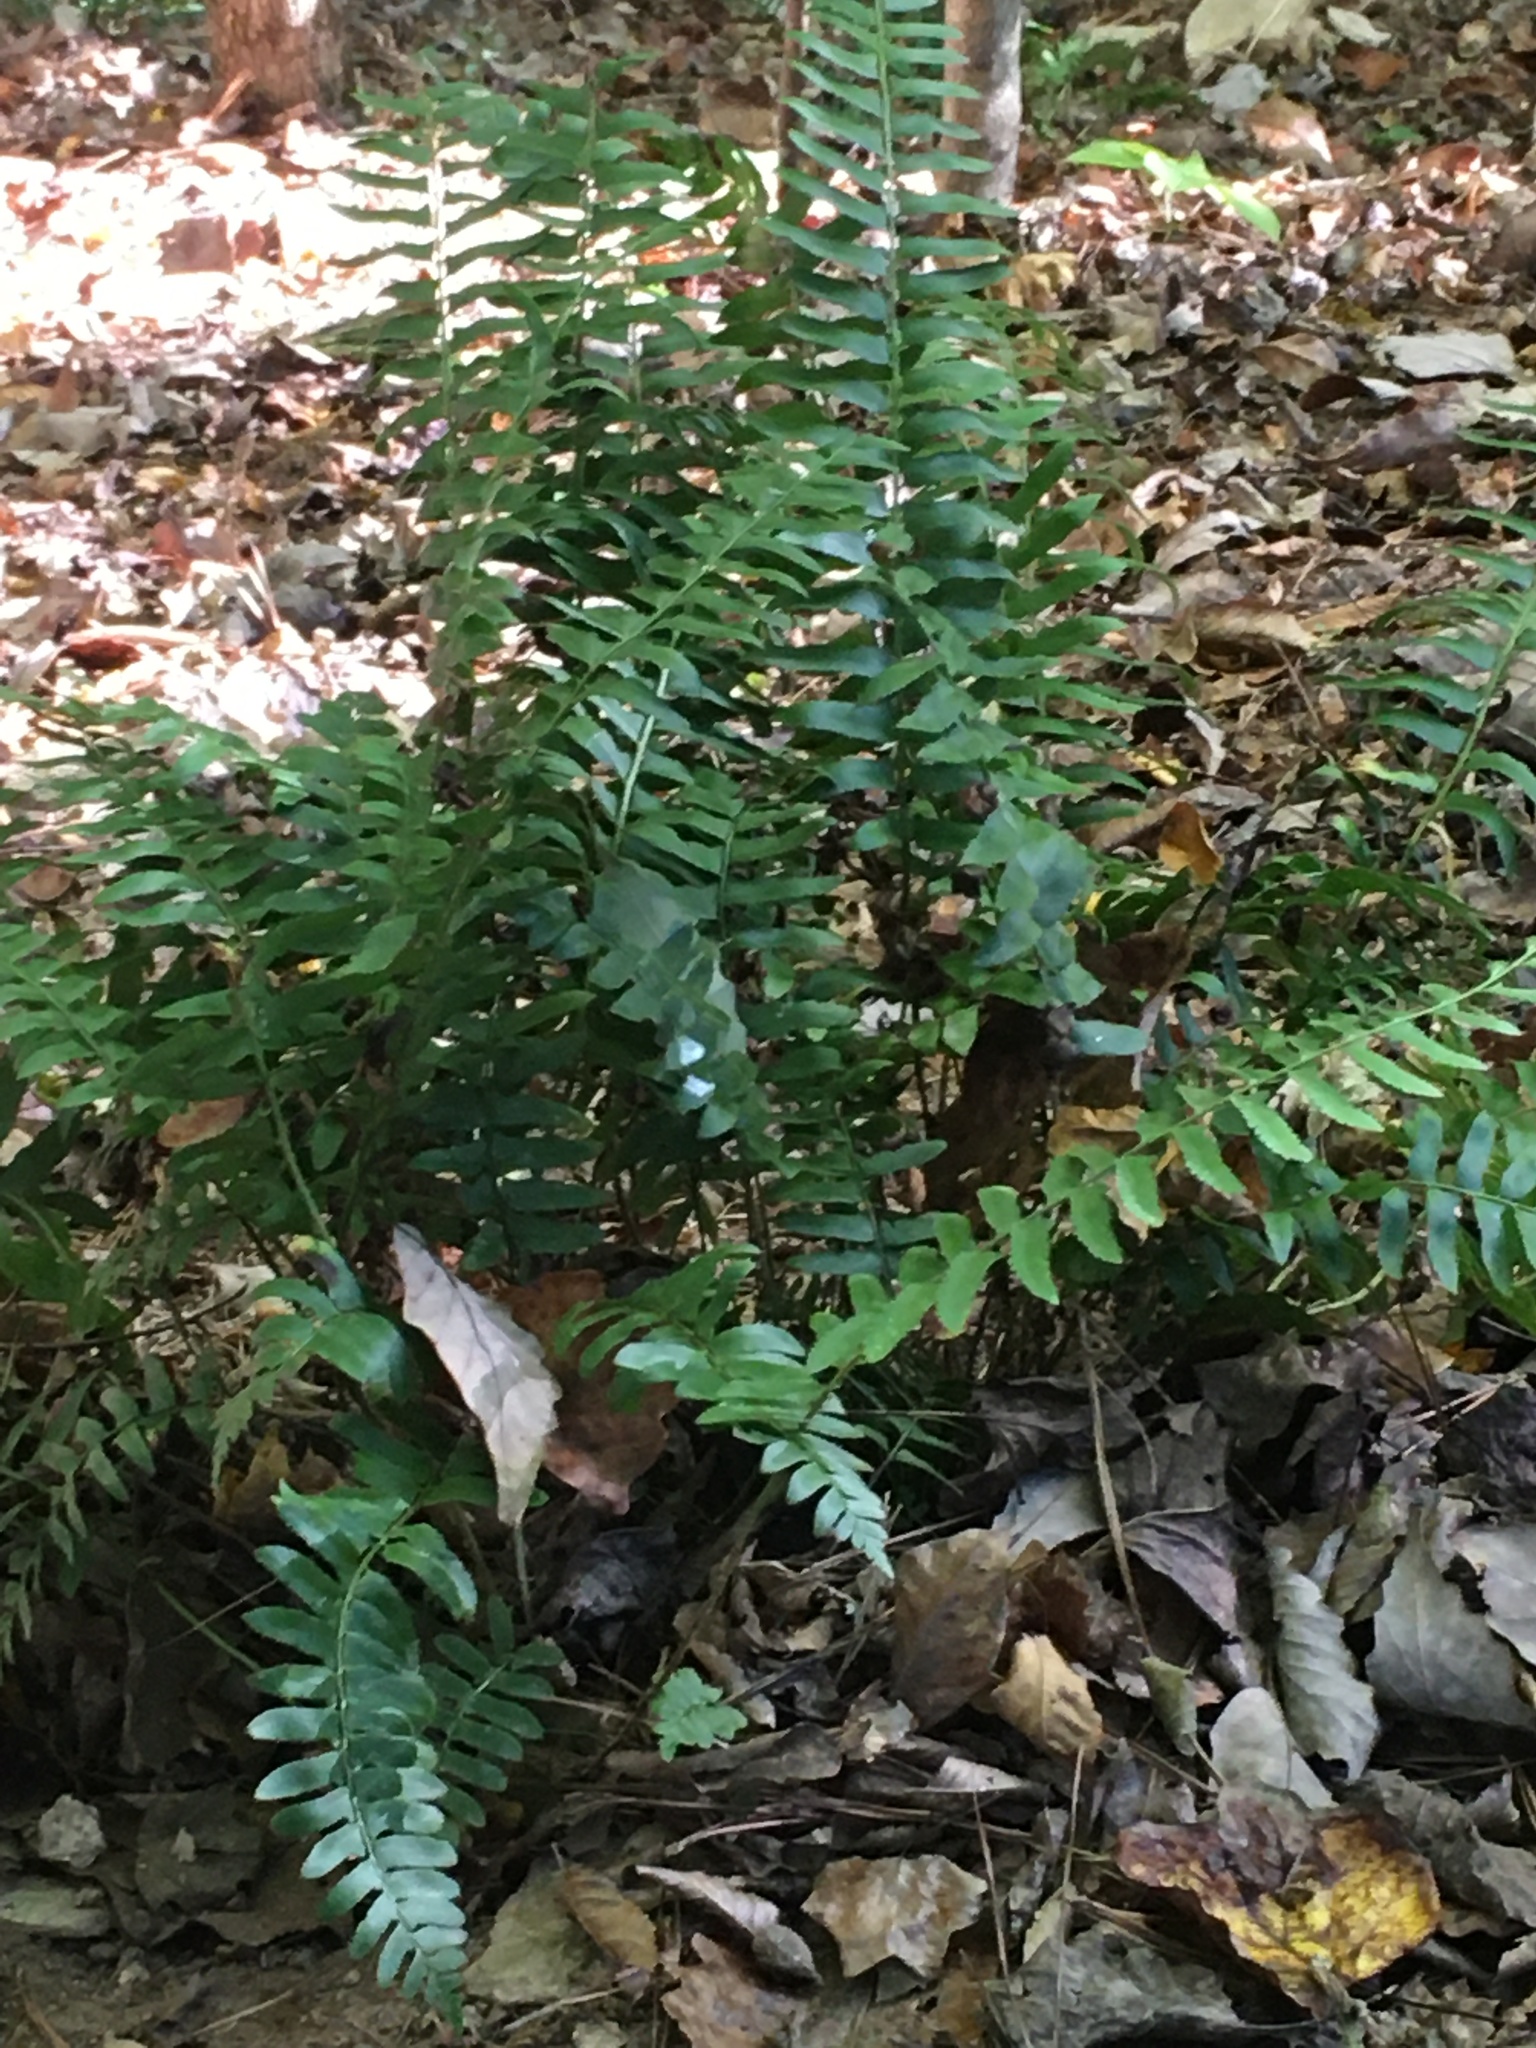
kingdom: Plantae
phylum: Tracheophyta
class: Polypodiopsida
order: Polypodiales
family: Dryopteridaceae
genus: Polystichum
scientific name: Polystichum acrostichoides
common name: Christmas fern
